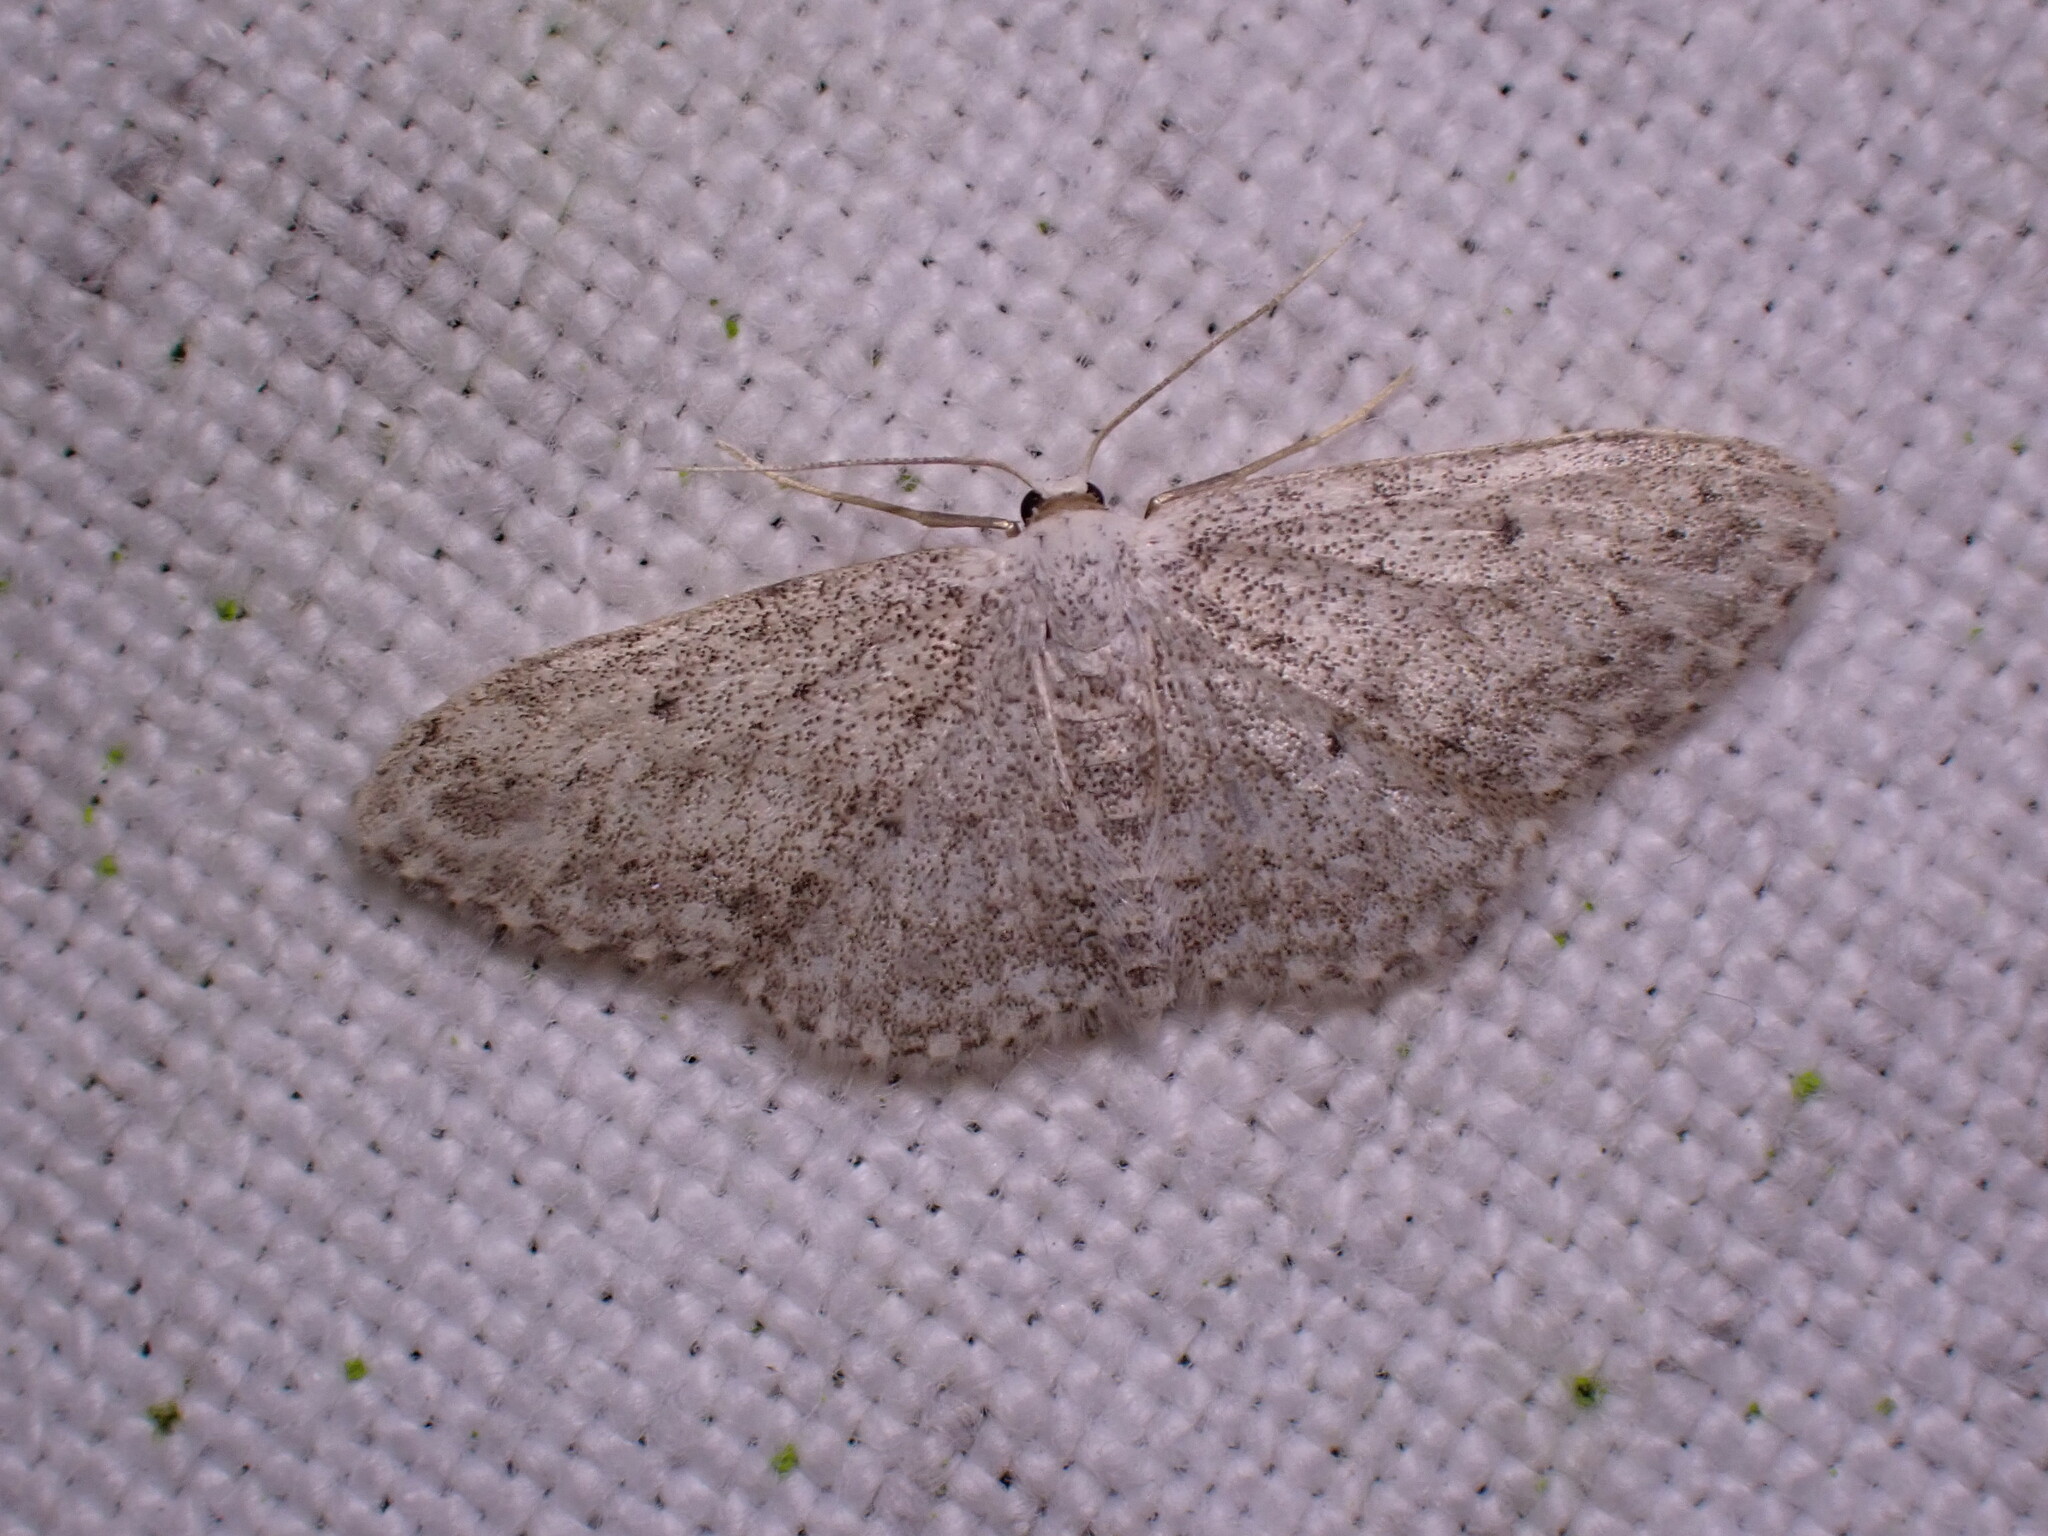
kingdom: Animalia
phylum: Arthropoda
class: Insecta
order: Lepidoptera
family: Geometridae
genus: Idaea
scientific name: Idaea seriata
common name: Small dusty wave
